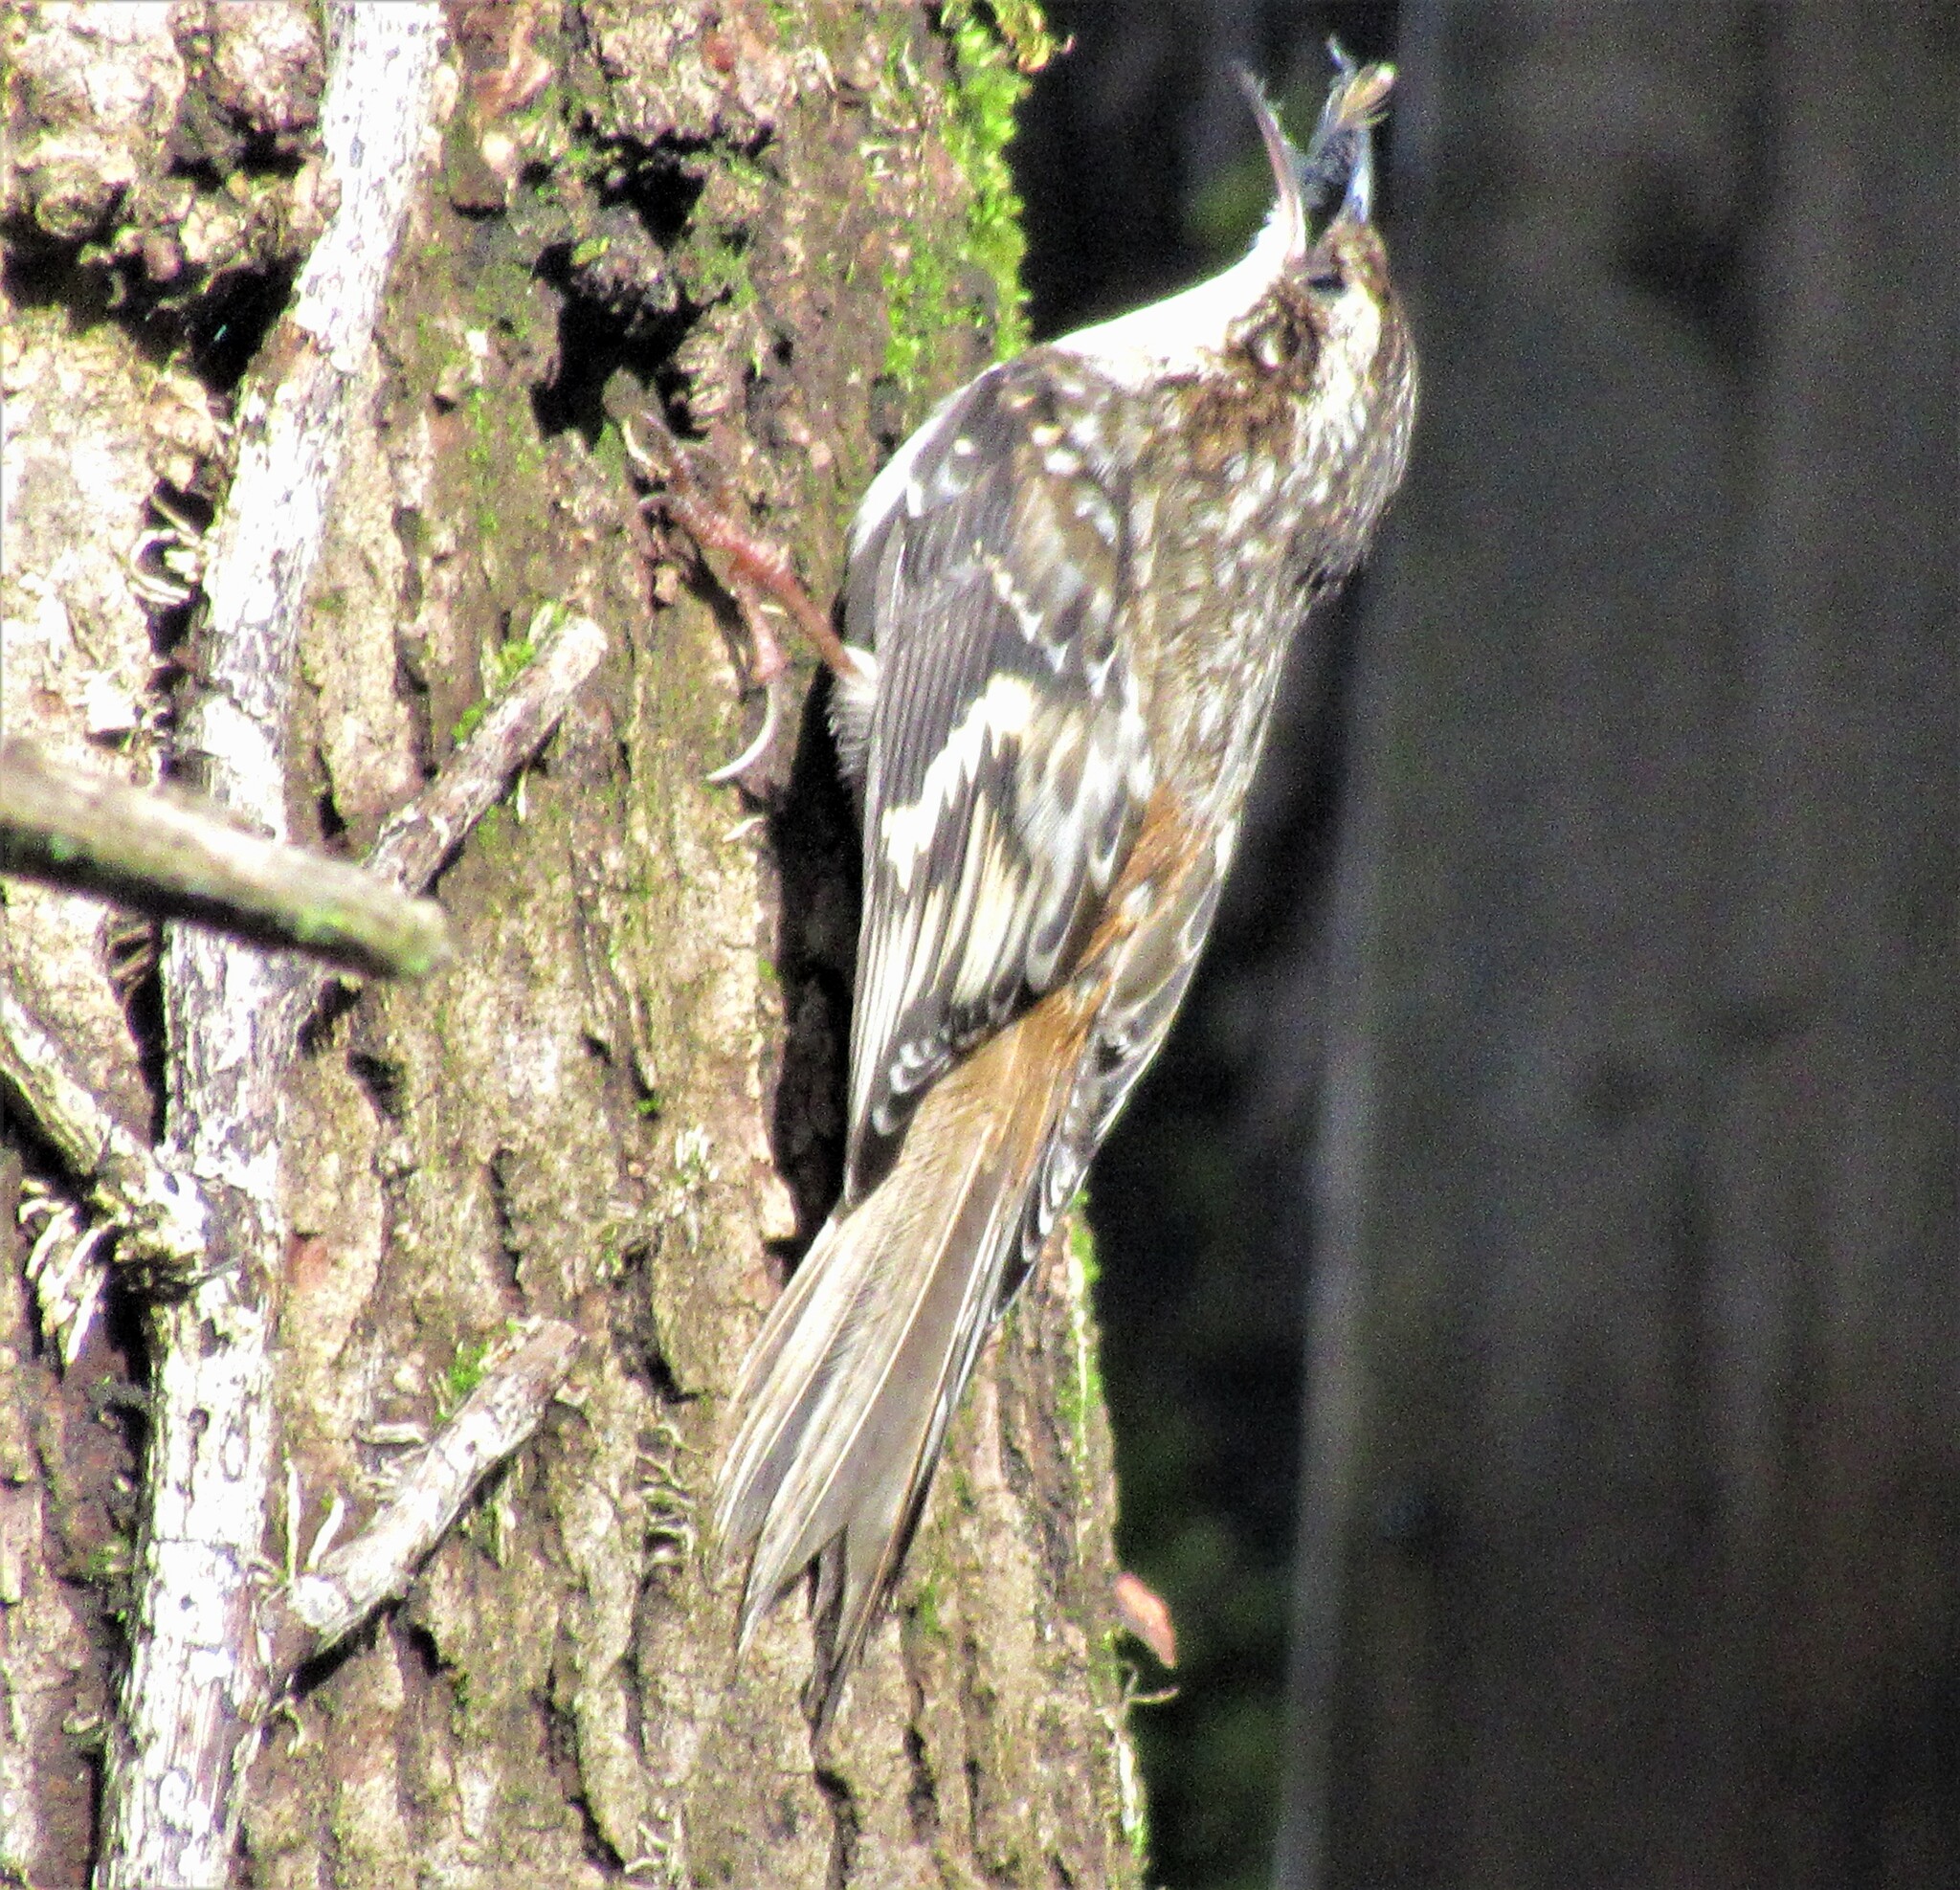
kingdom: Animalia
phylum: Chordata
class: Aves
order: Passeriformes
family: Certhiidae
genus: Certhia
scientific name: Certhia americana
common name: Brown creeper
